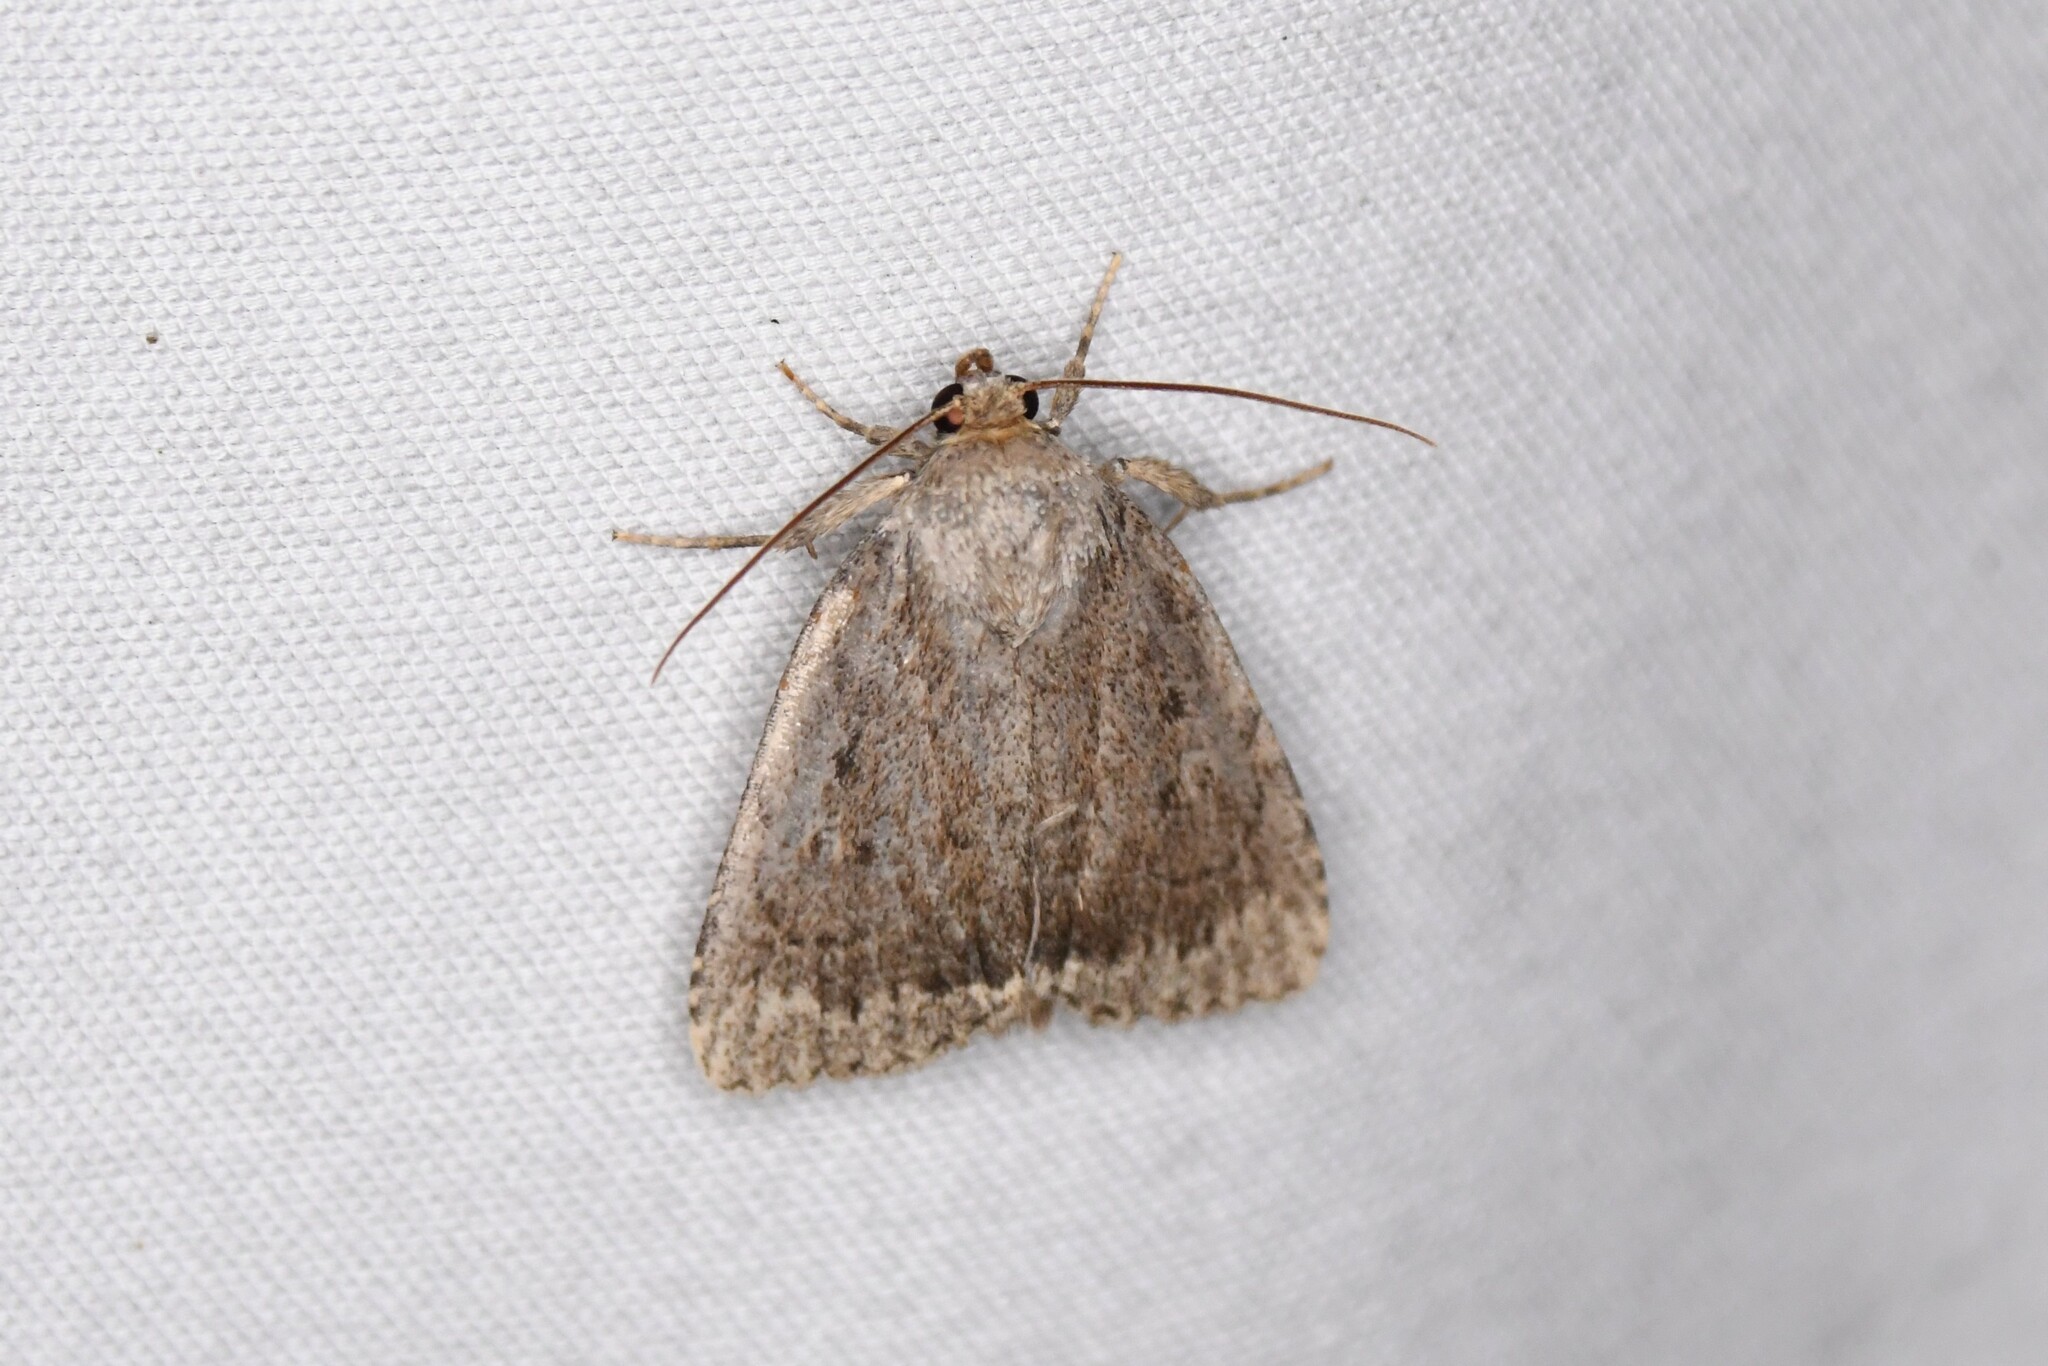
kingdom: Animalia
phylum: Arthropoda
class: Insecta
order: Lepidoptera
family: Noctuidae
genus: Amphipyra
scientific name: Amphipyra glabella
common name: Smooth amphipyra moth
